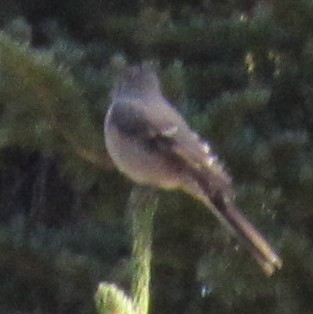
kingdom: Animalia
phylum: Chordata
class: Aves
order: Passeriformes
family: Turdidae
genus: Myadestes
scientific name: Myadestes townsendi
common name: Townsend's solitaire
